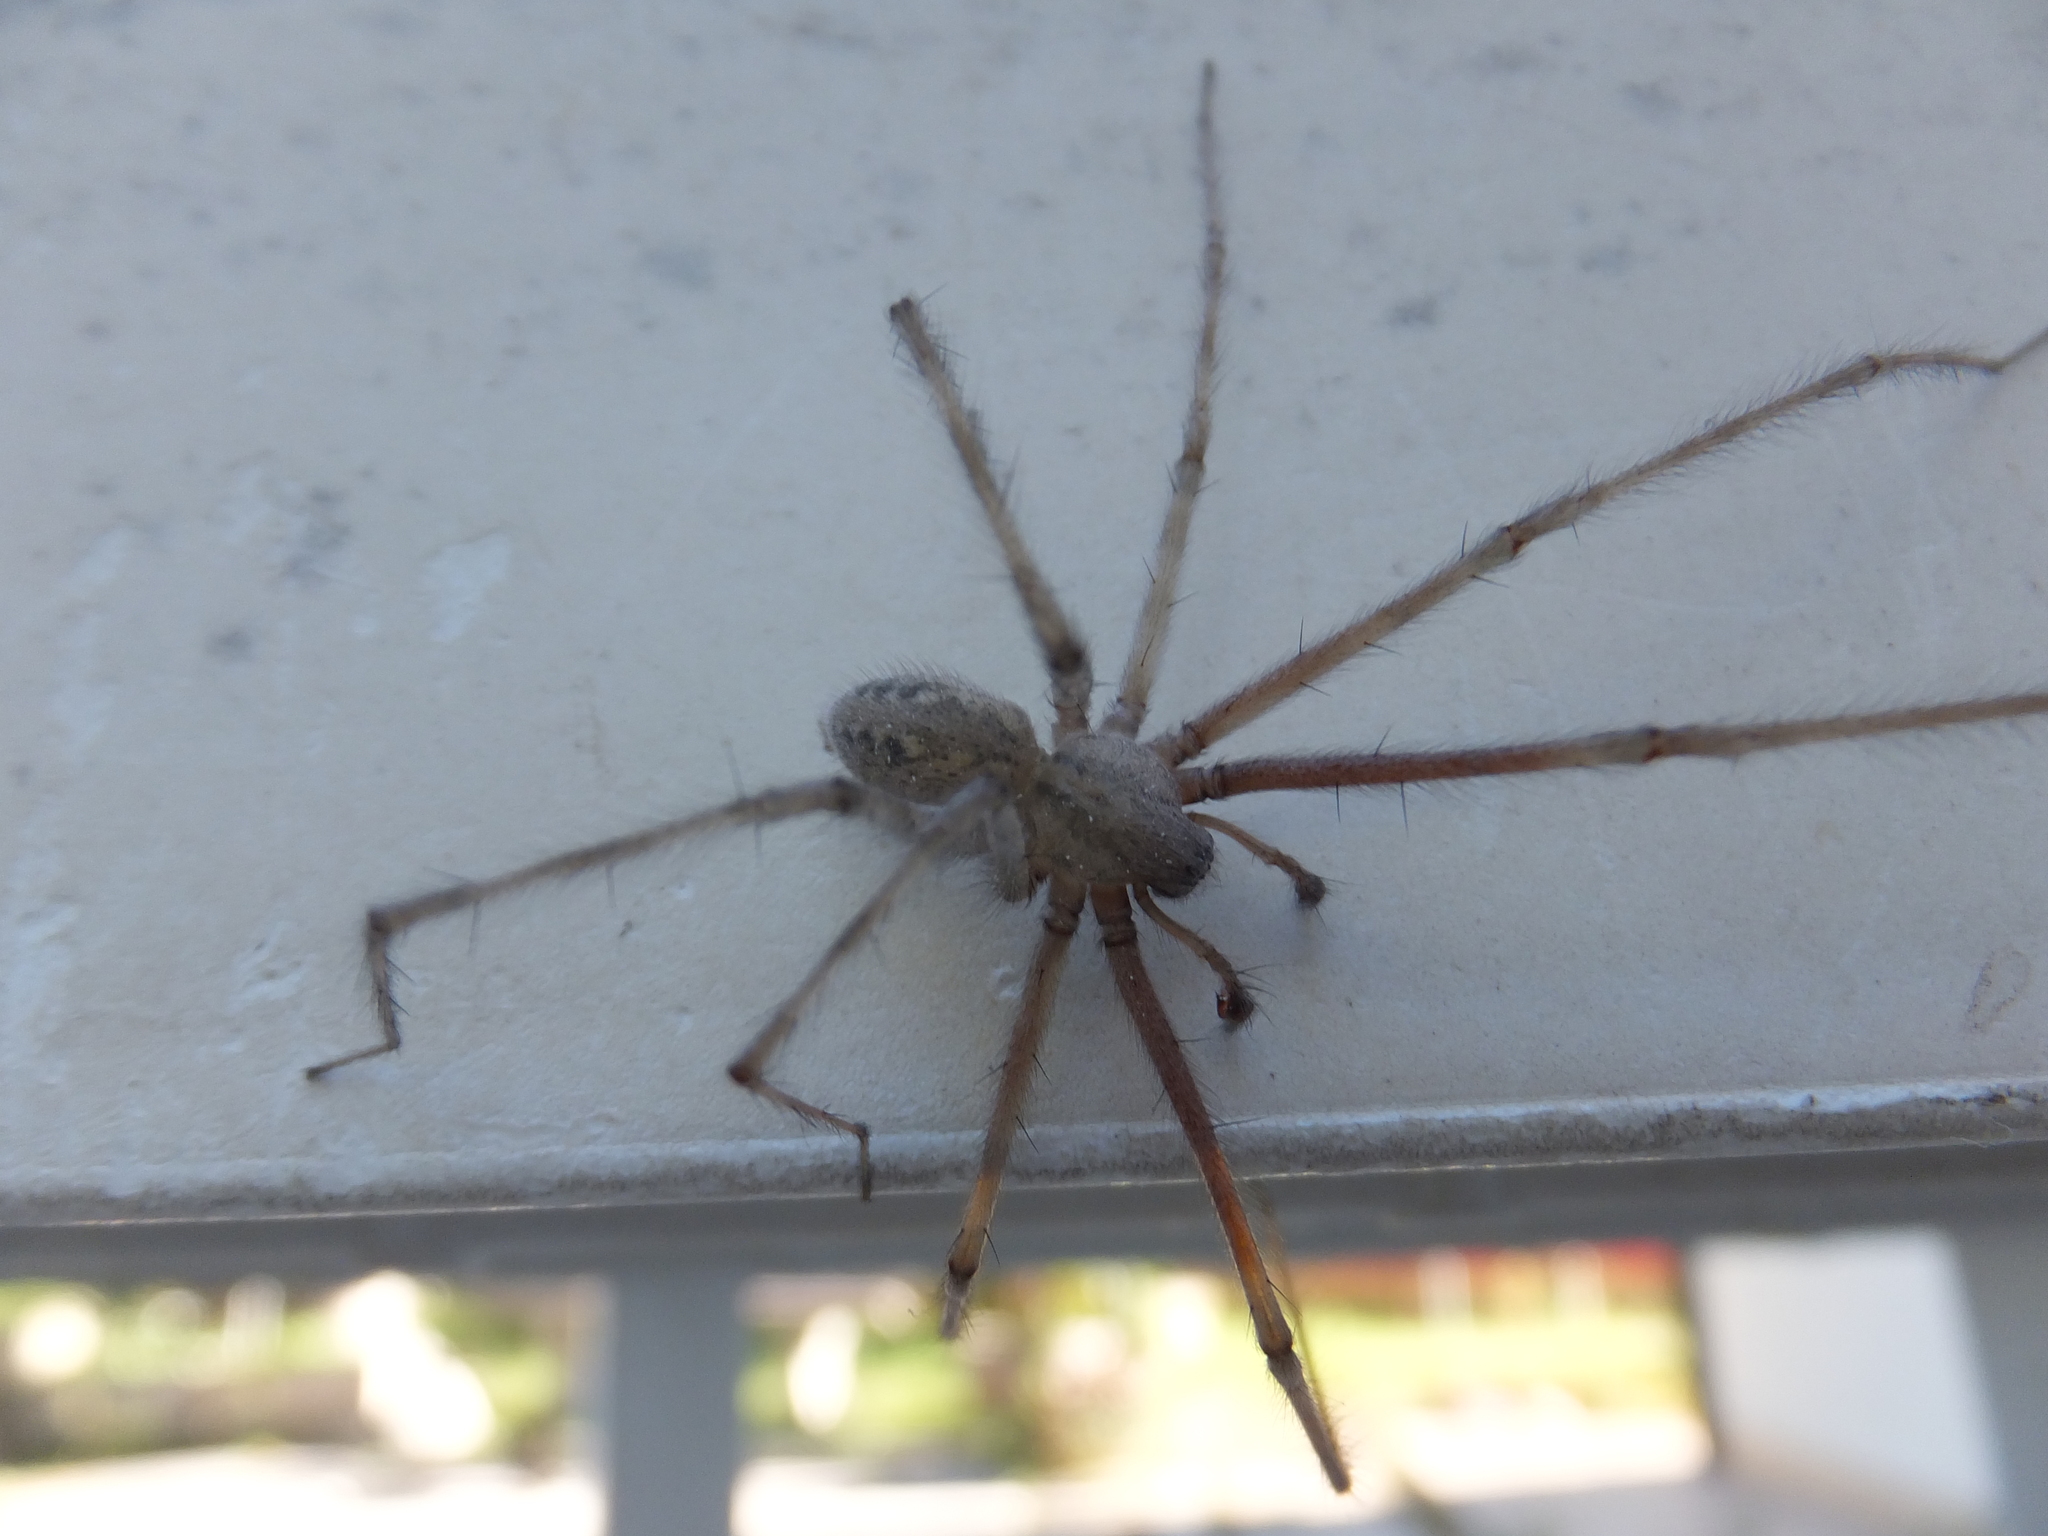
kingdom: Animalia
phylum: Arthropoda
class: Arachnida
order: Araneae
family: Agelenidae
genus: Tegenaria
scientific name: Tegenaria parietina
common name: Cardinal spider
